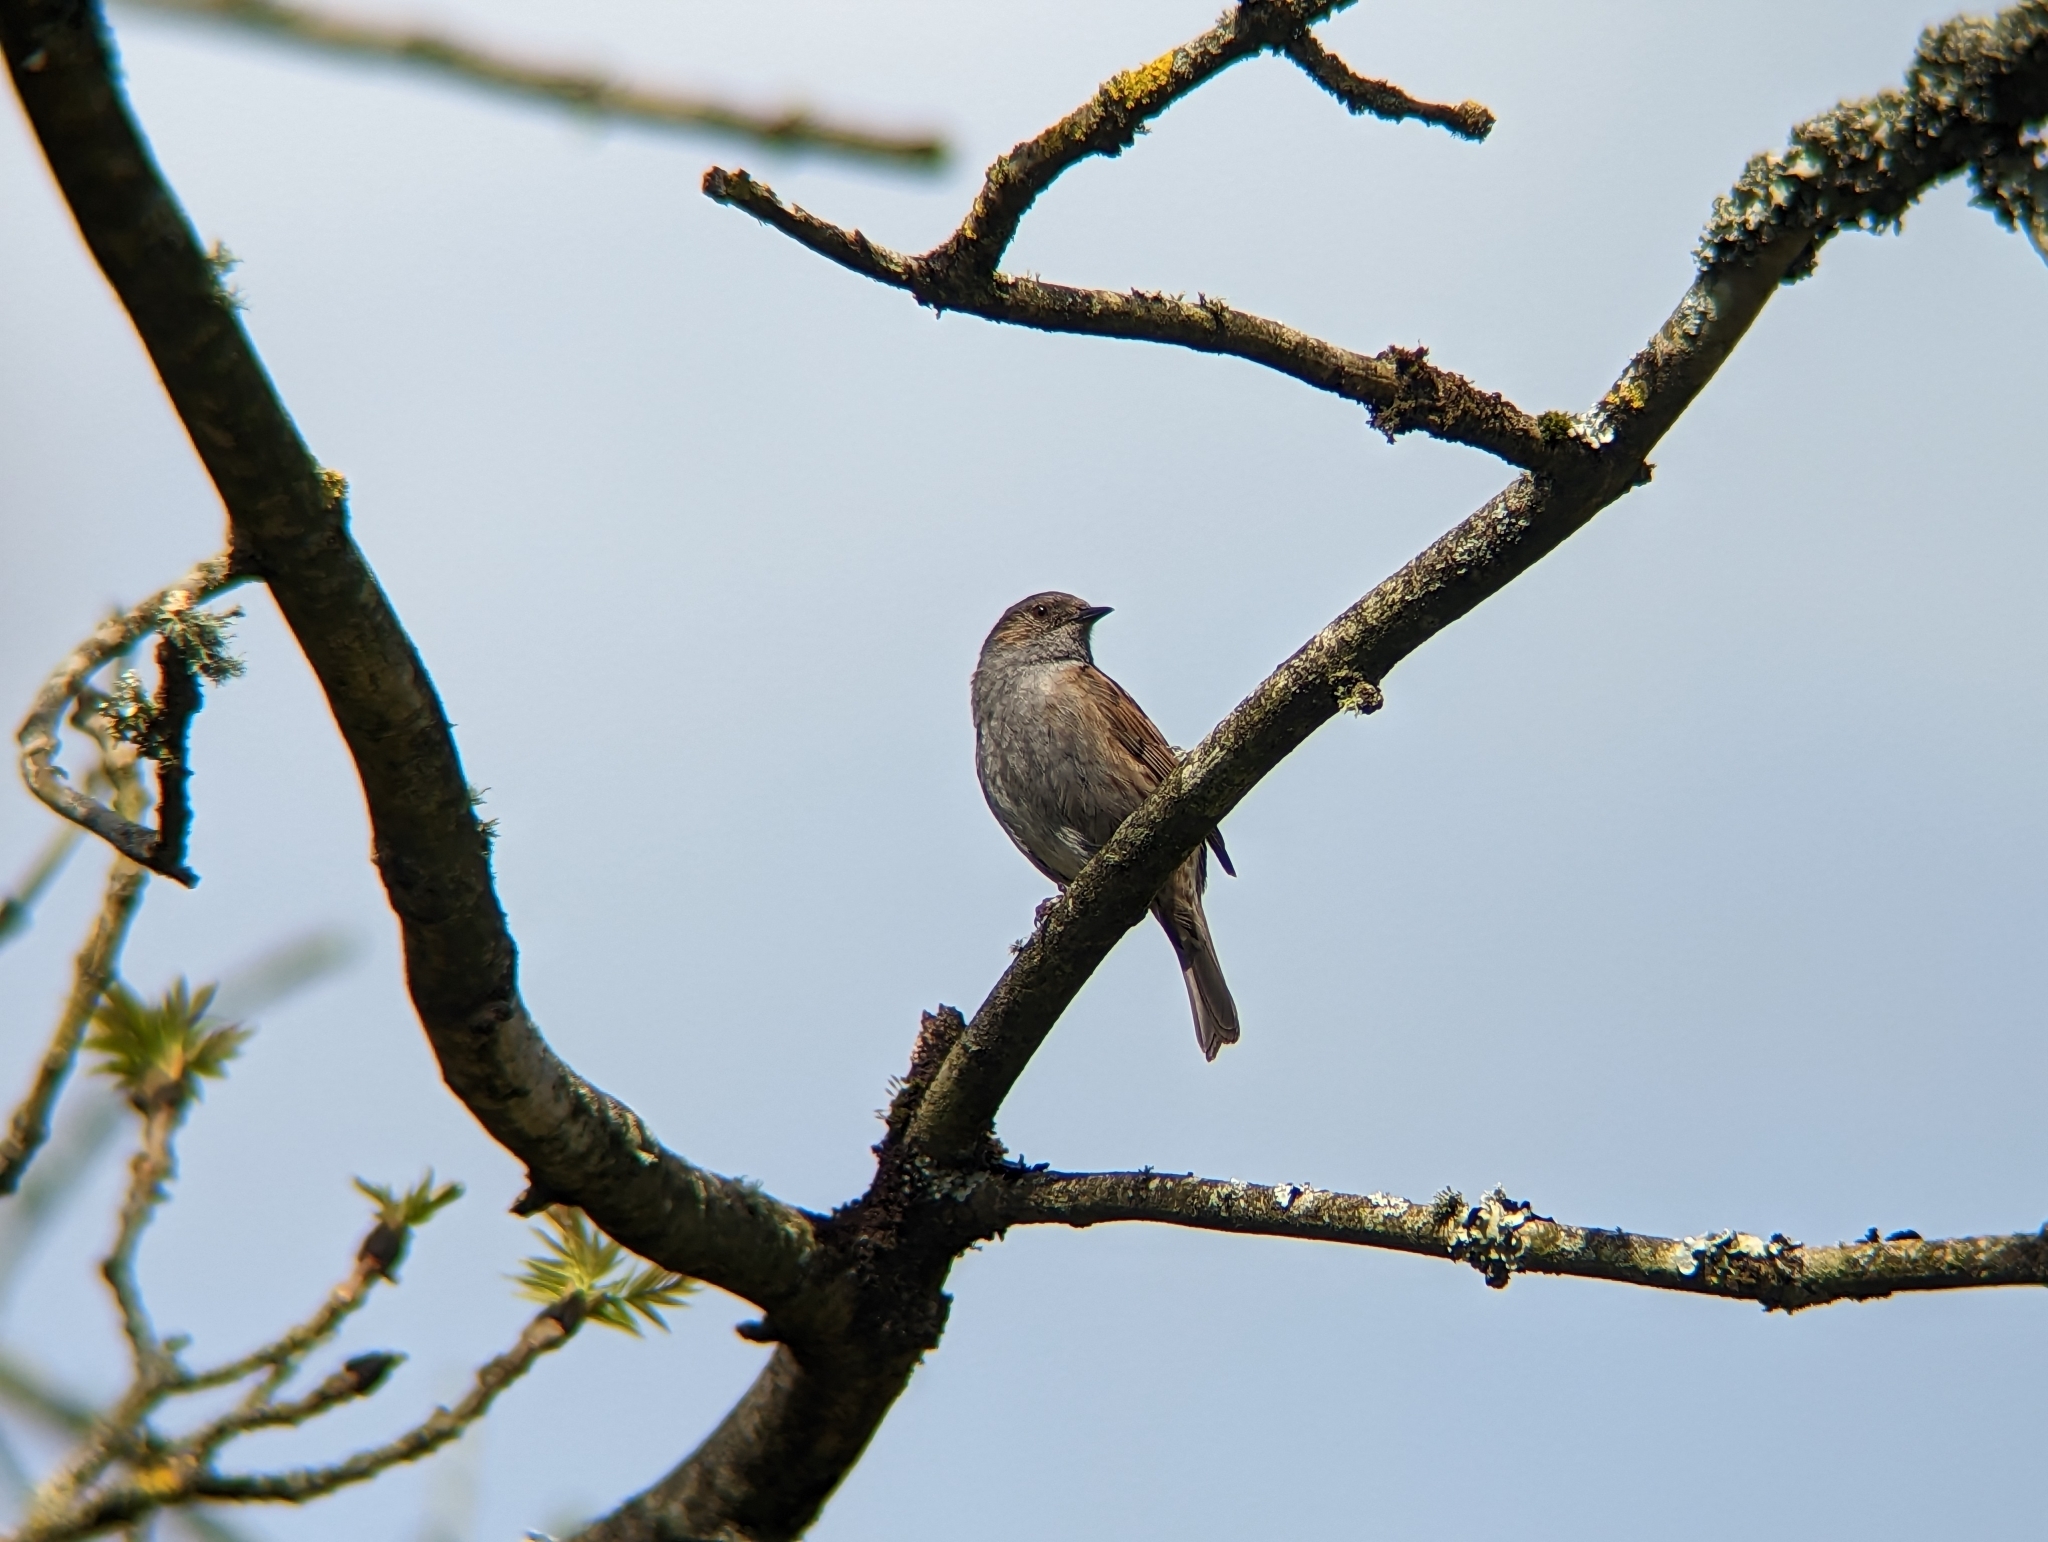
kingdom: Animalia
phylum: Chordata
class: Aves
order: Passeriformes
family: Prunellidae
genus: Prunella
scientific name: Prunella modularis
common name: Dunnock
